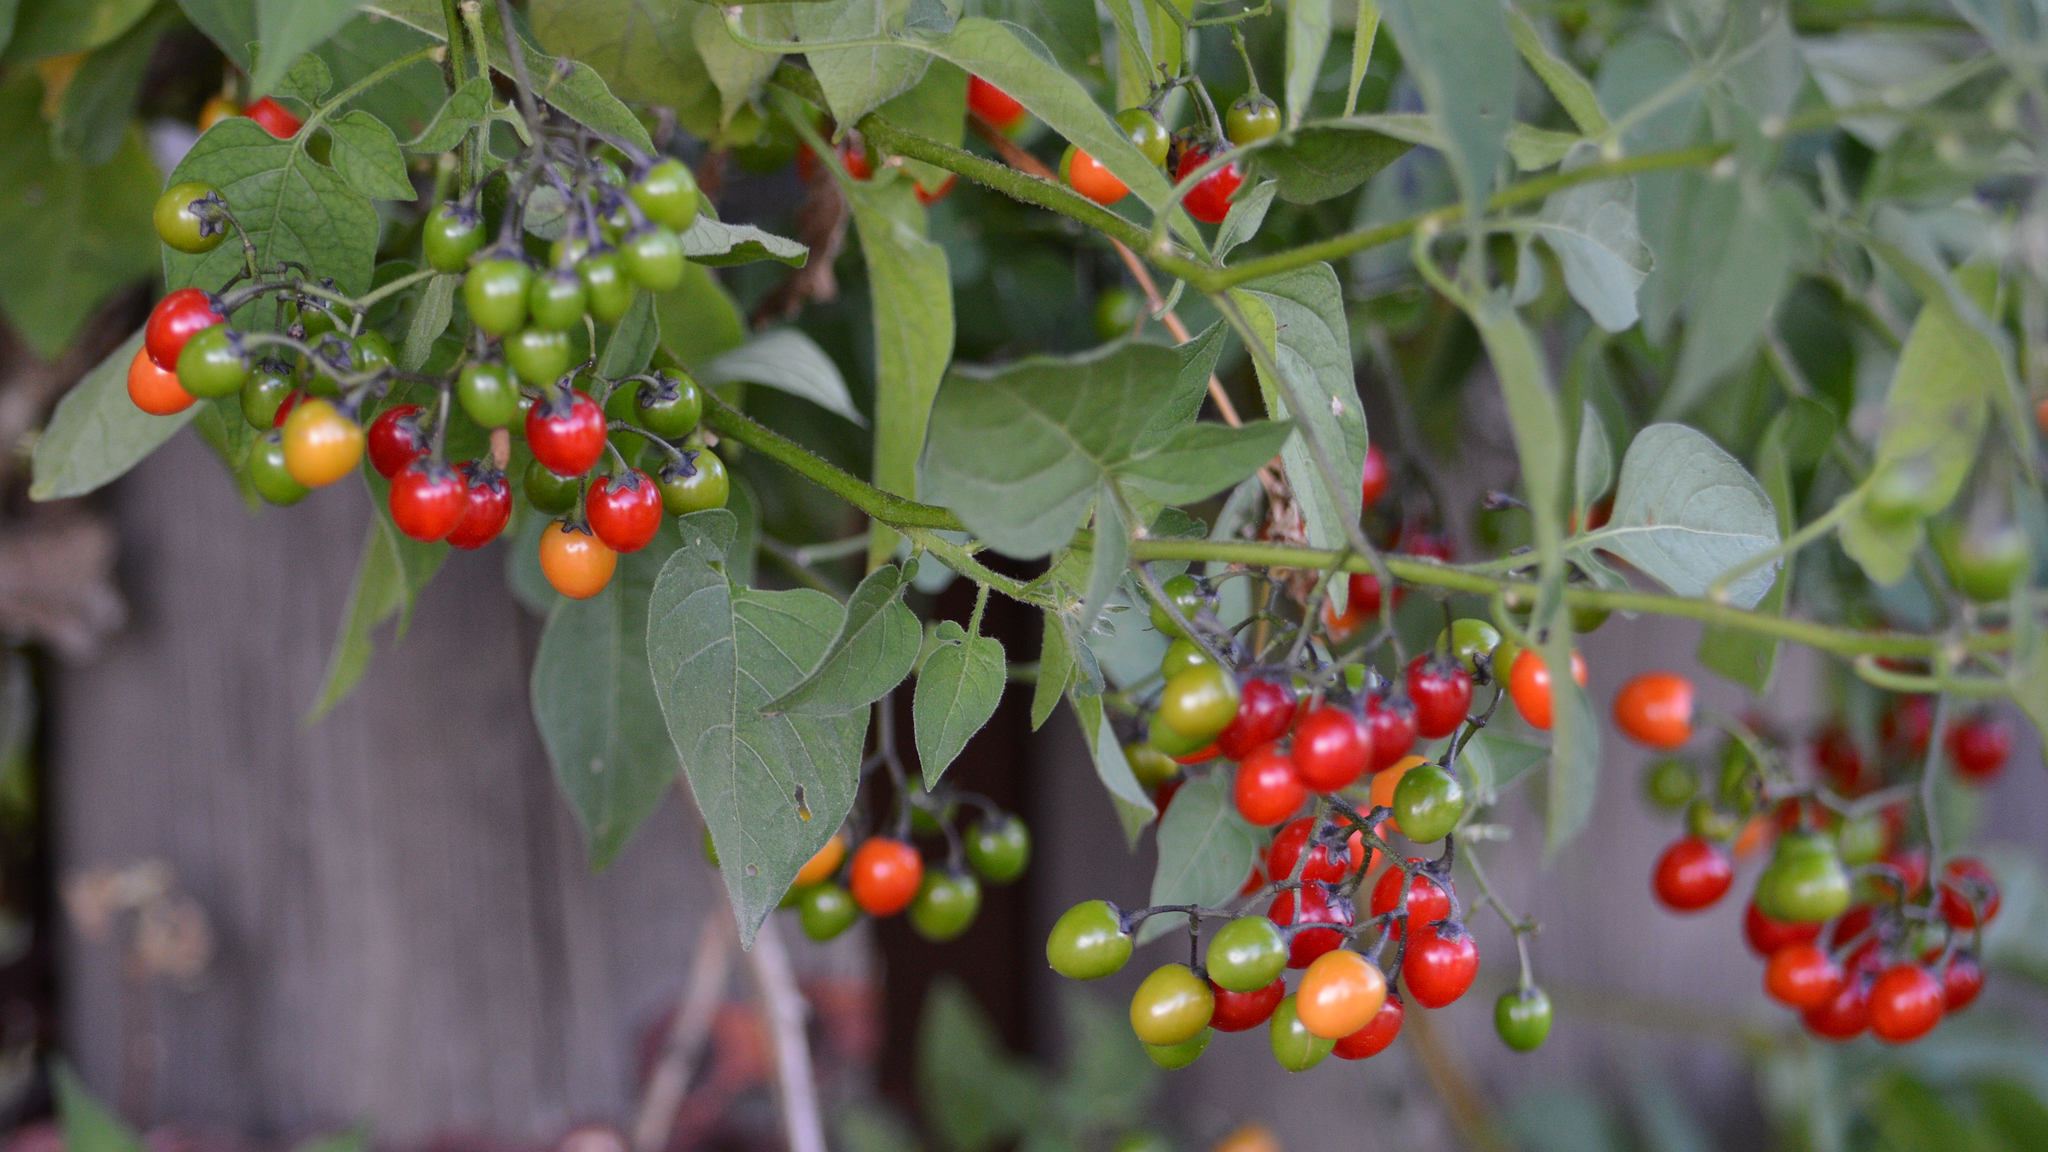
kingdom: Plantae
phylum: Tracheophyta
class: Magnoliopsida
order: Solanales
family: Solanaceae
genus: Solanum
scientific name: Solanum dulcamara
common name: Climbing nightshade
